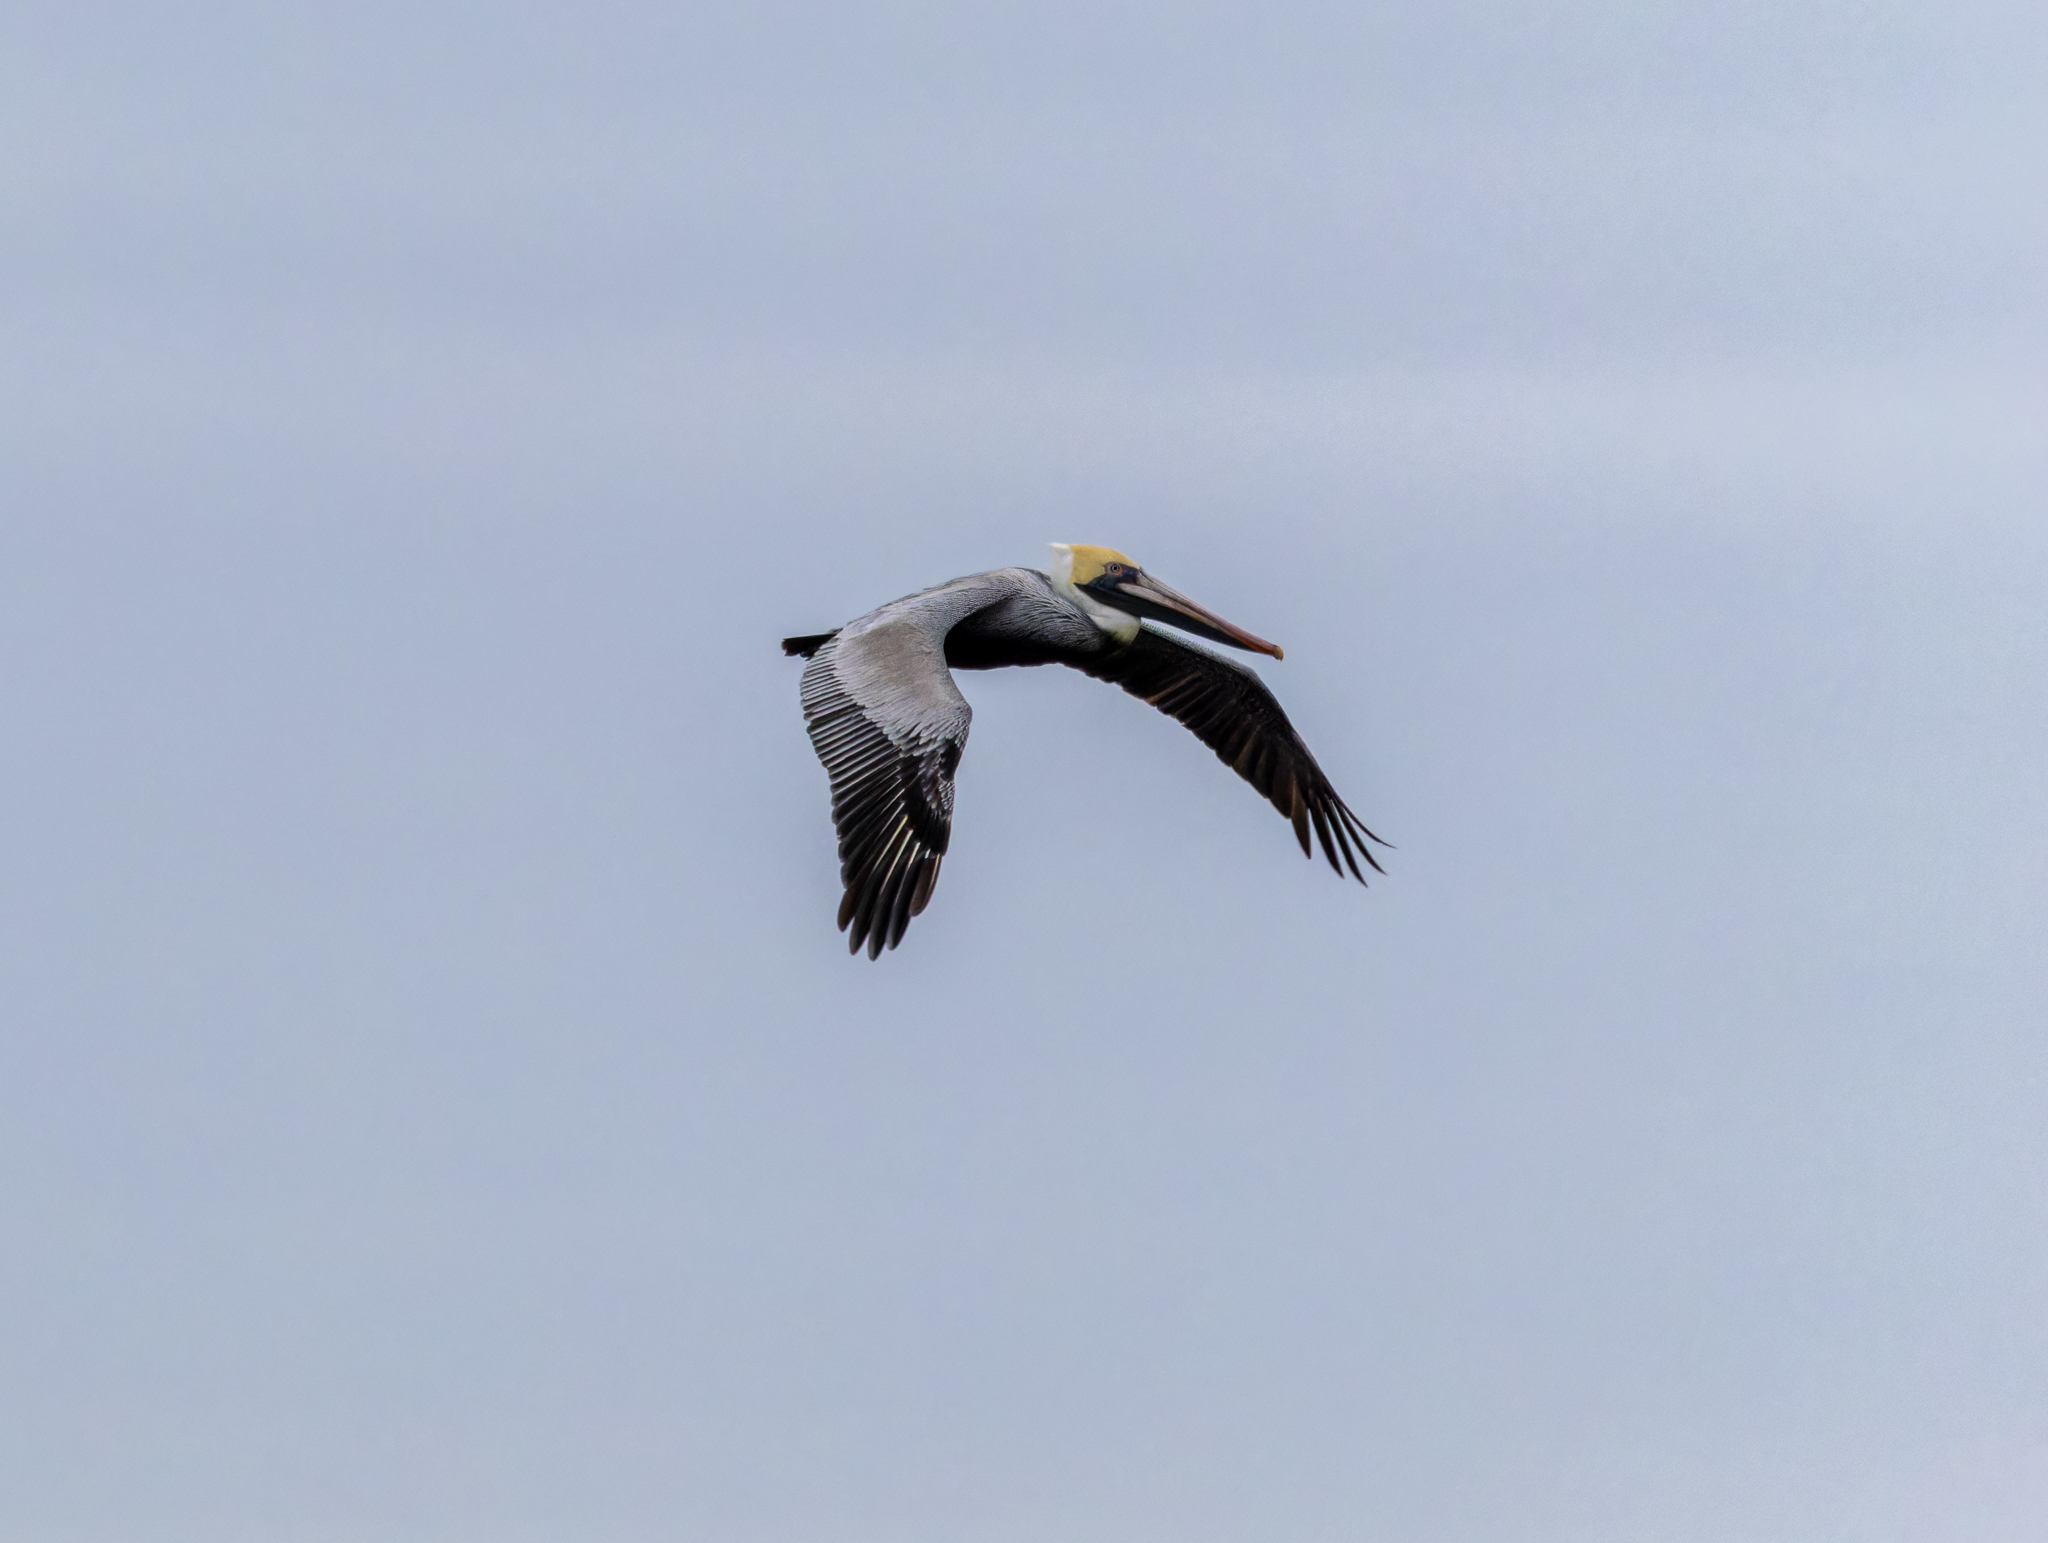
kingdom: Animalia
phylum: Chordata
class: Aves
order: Pelecaniformes
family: Pelecanidae
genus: Pelecanus
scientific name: Pelecanus occidentalis
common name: Brown pelican
